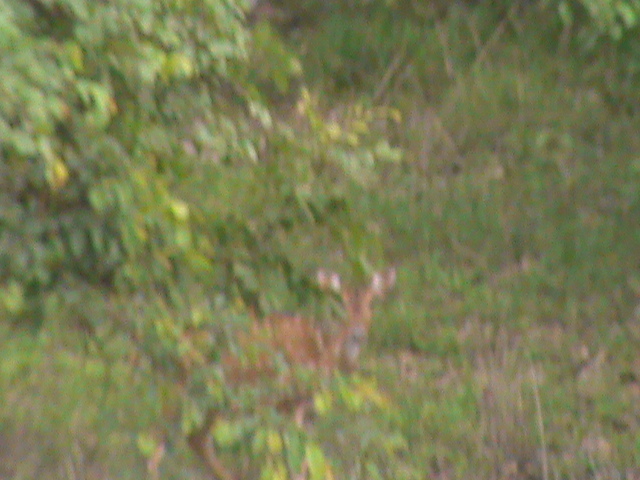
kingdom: Animalia
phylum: Chordata
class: Mammalia
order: Artiodactyla
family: Cervidae
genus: Axis
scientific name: Axis axis
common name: Chital
